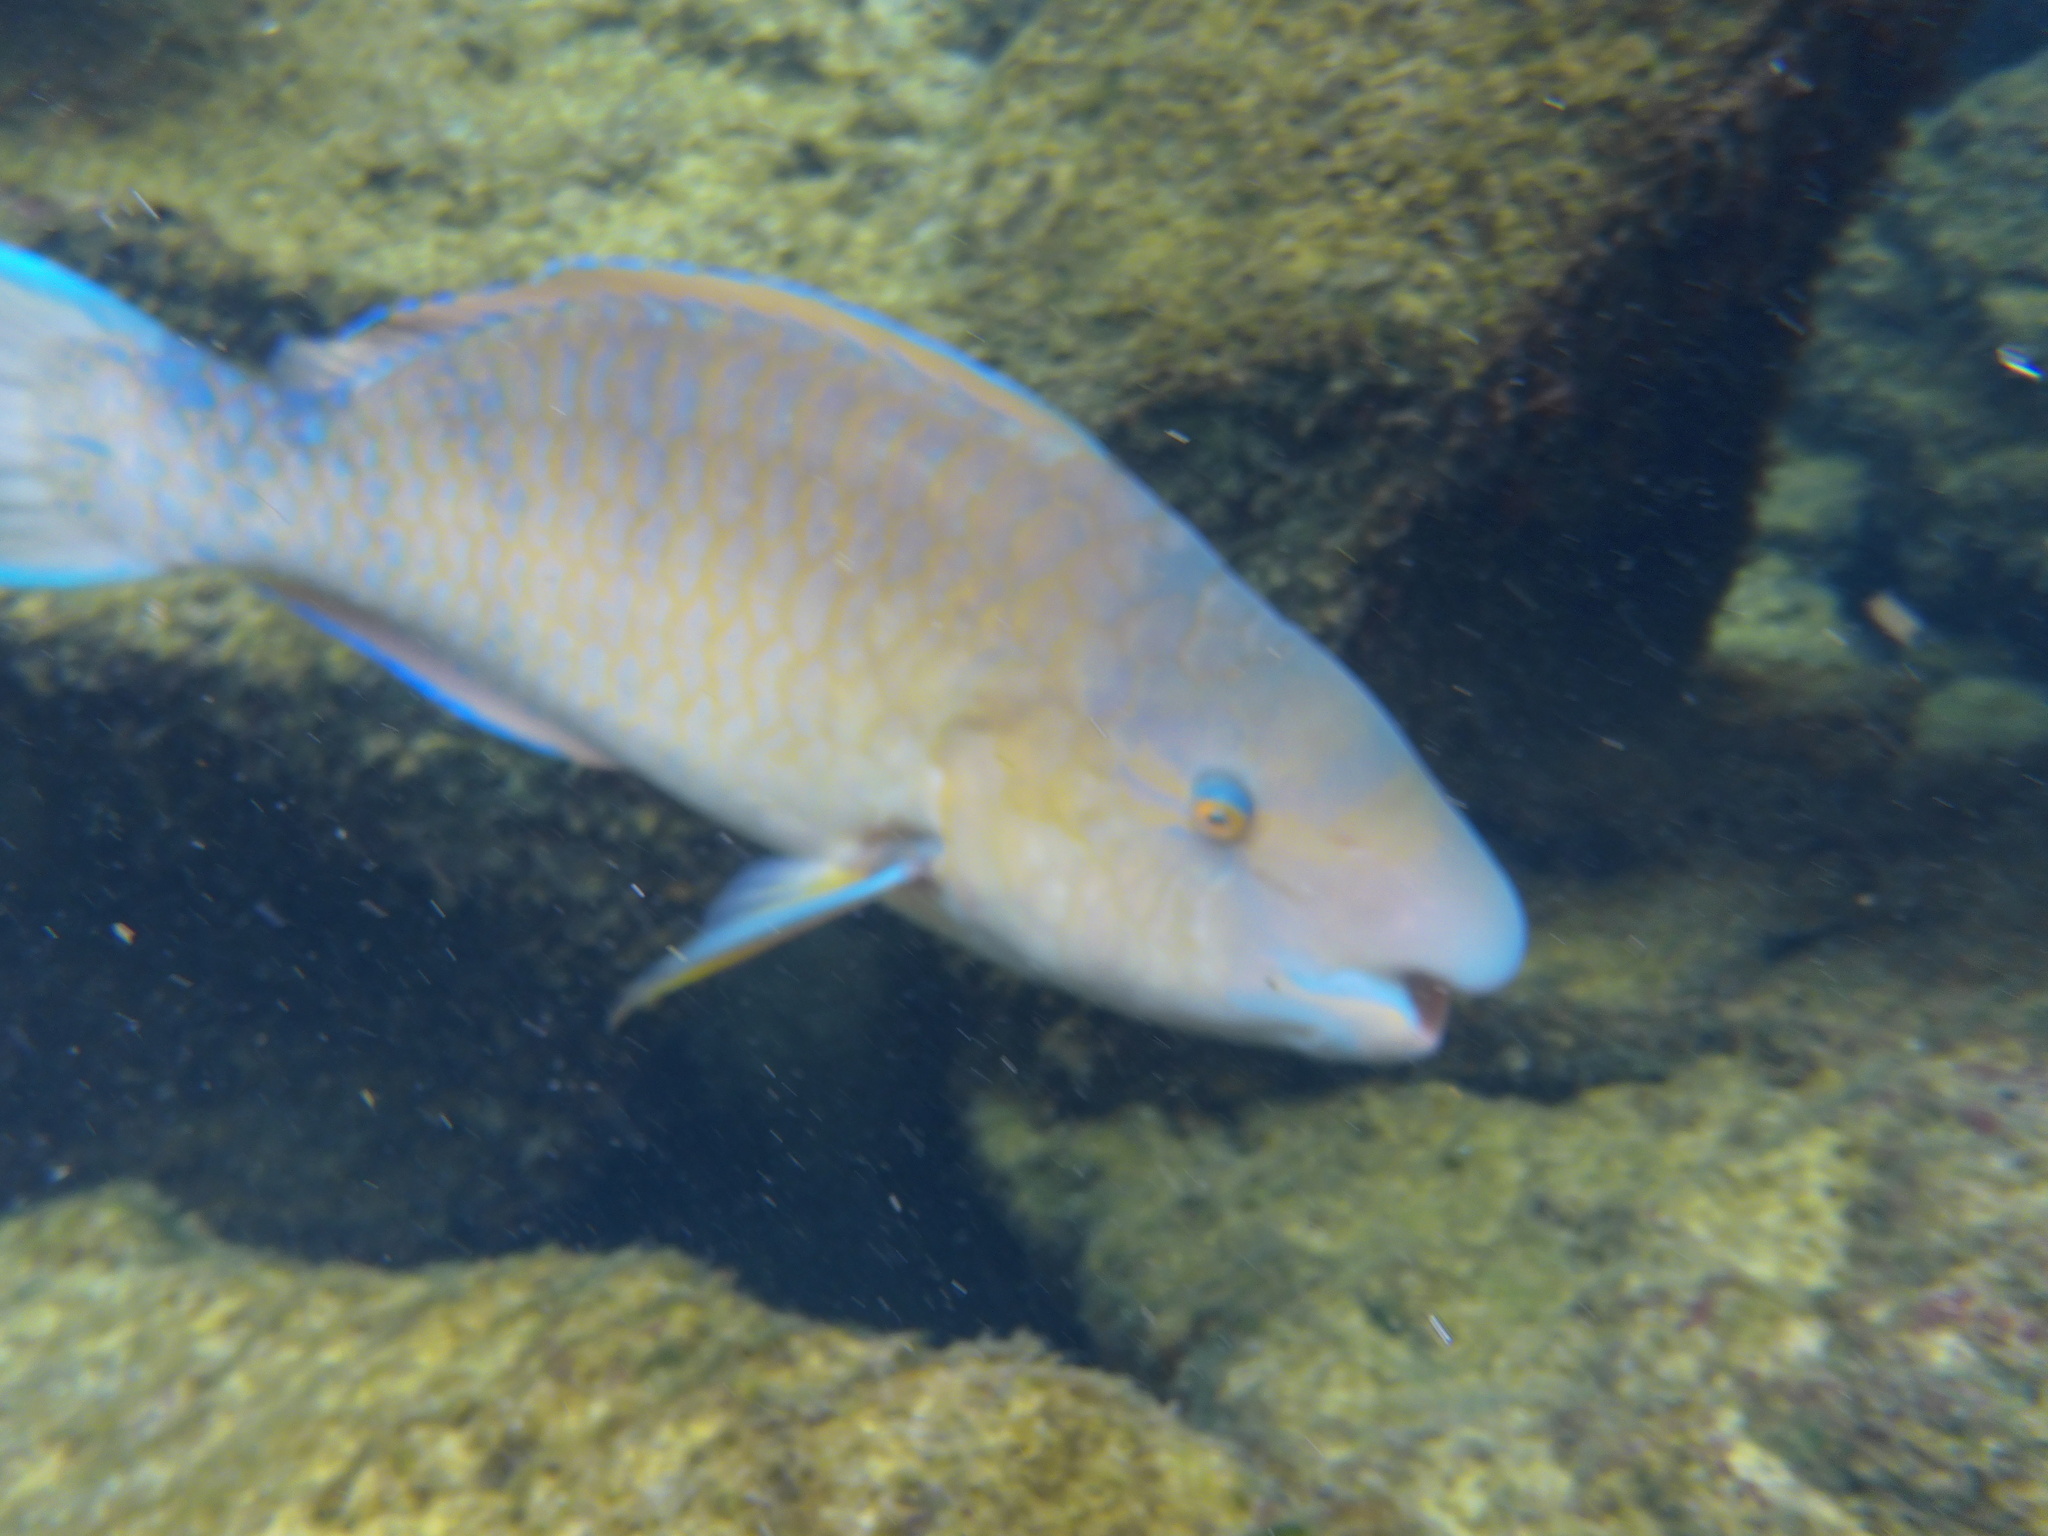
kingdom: Animalia
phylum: Chordata
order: Perciformes
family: Scaridae
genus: Scarus
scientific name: Scarus ghobban
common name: Blue-barred parrotfish
